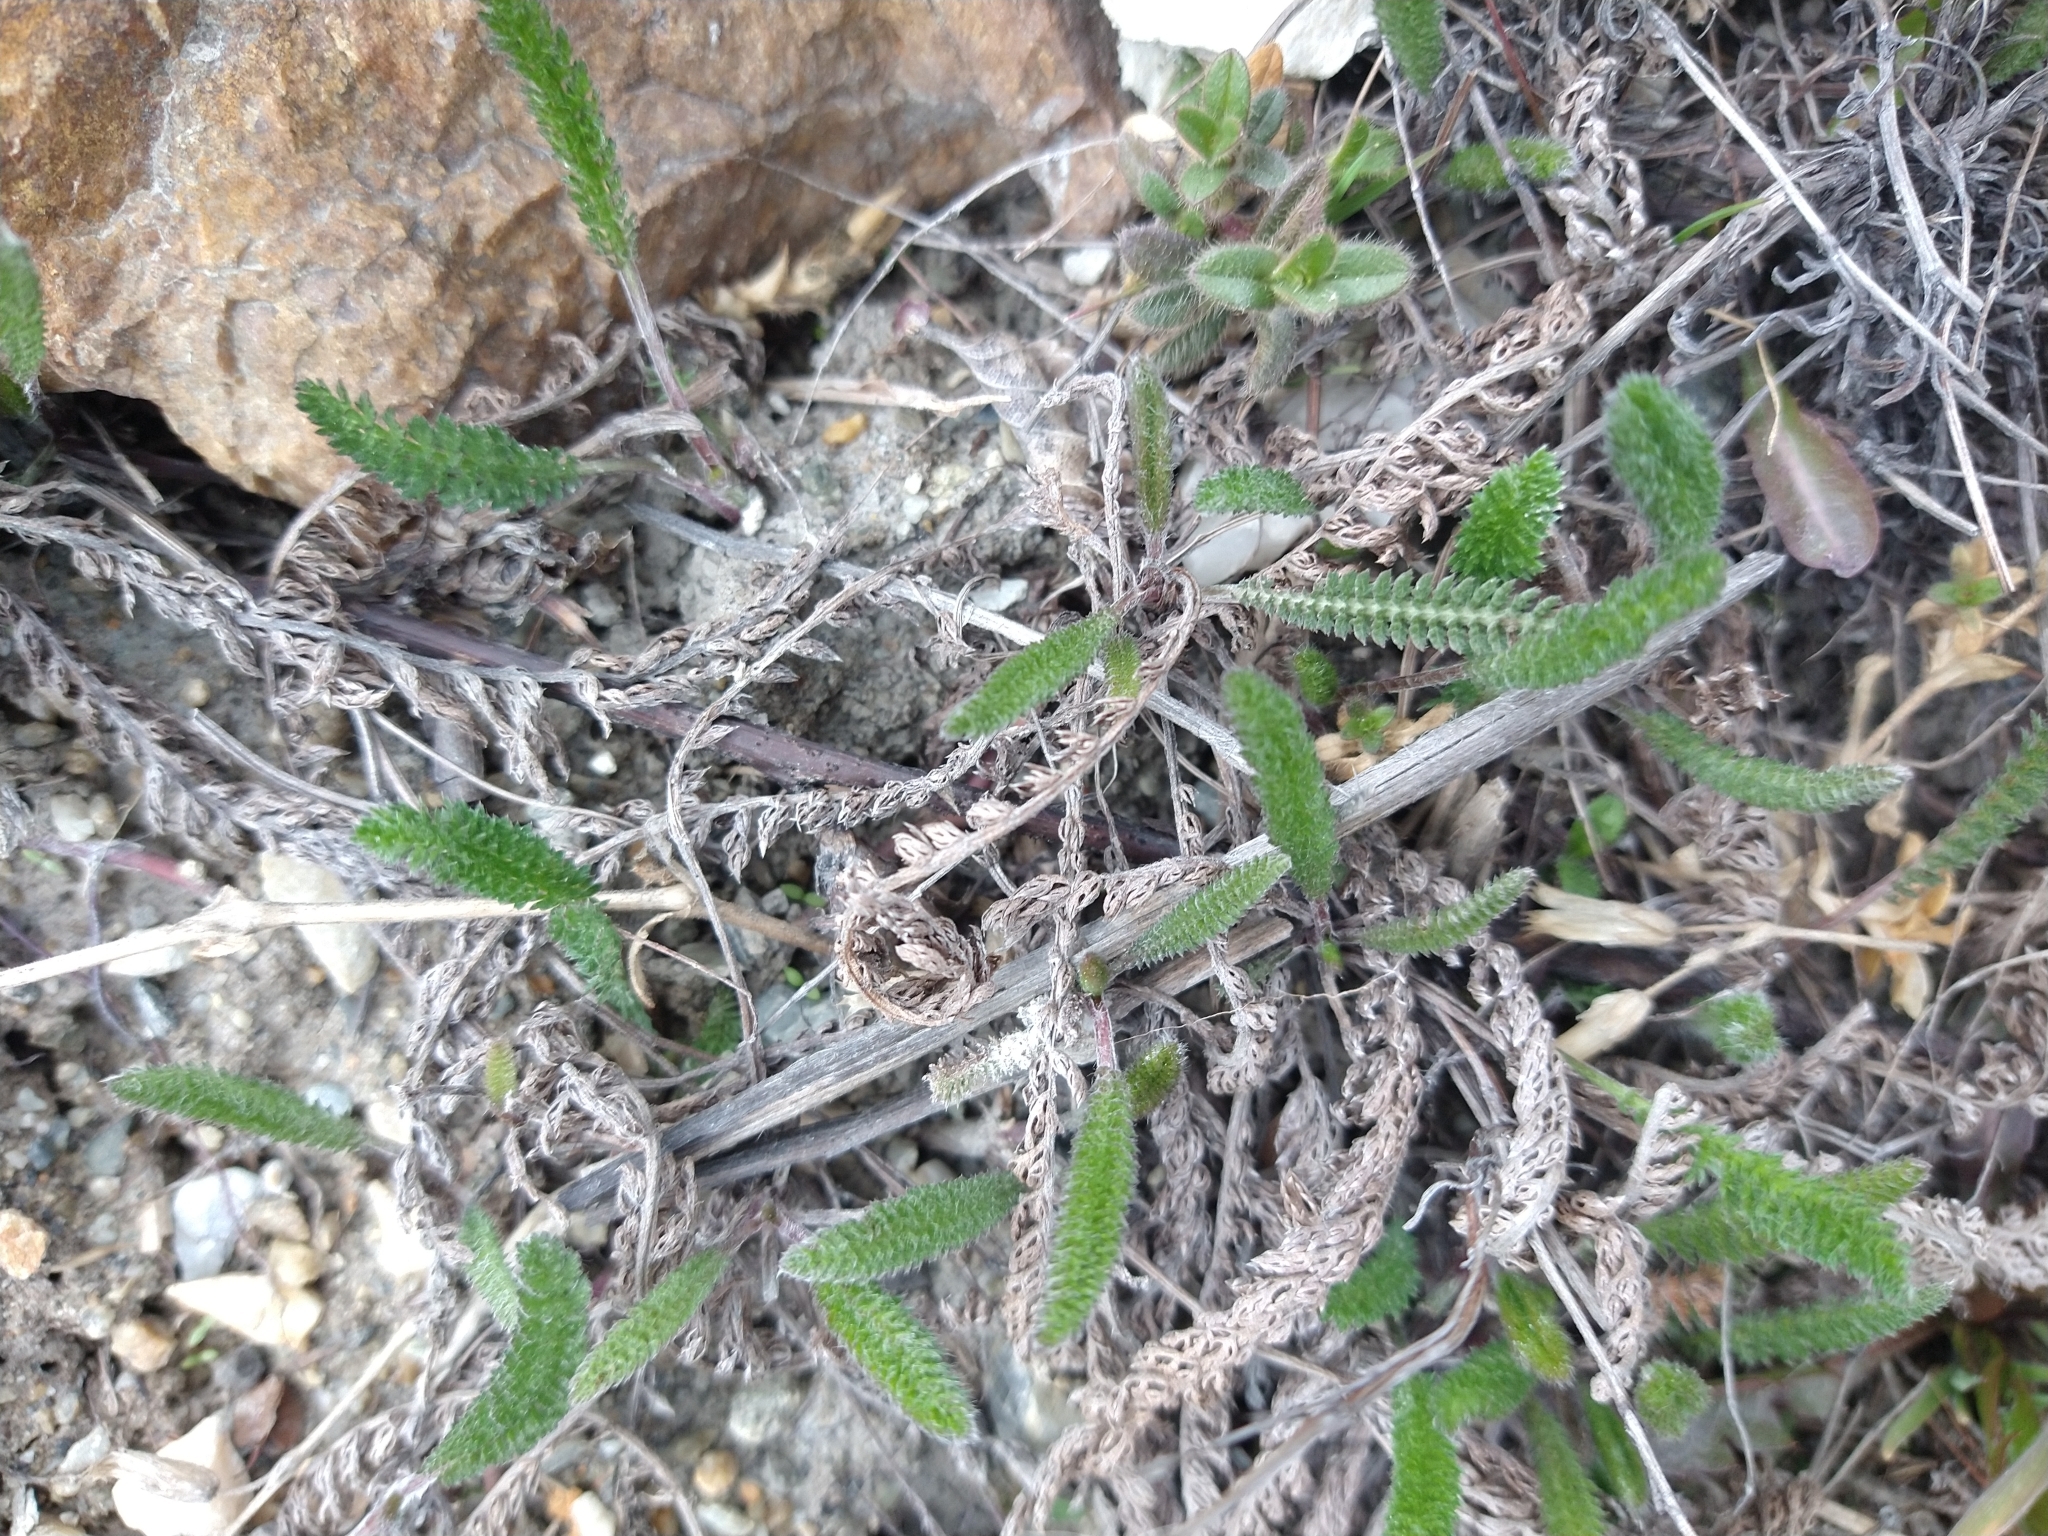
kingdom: Plantae
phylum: Tracheophyta
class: Magnoliopsida
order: Asterales
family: Asteraceae
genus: Achillea
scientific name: Achillea millefolium
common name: Yarrow
